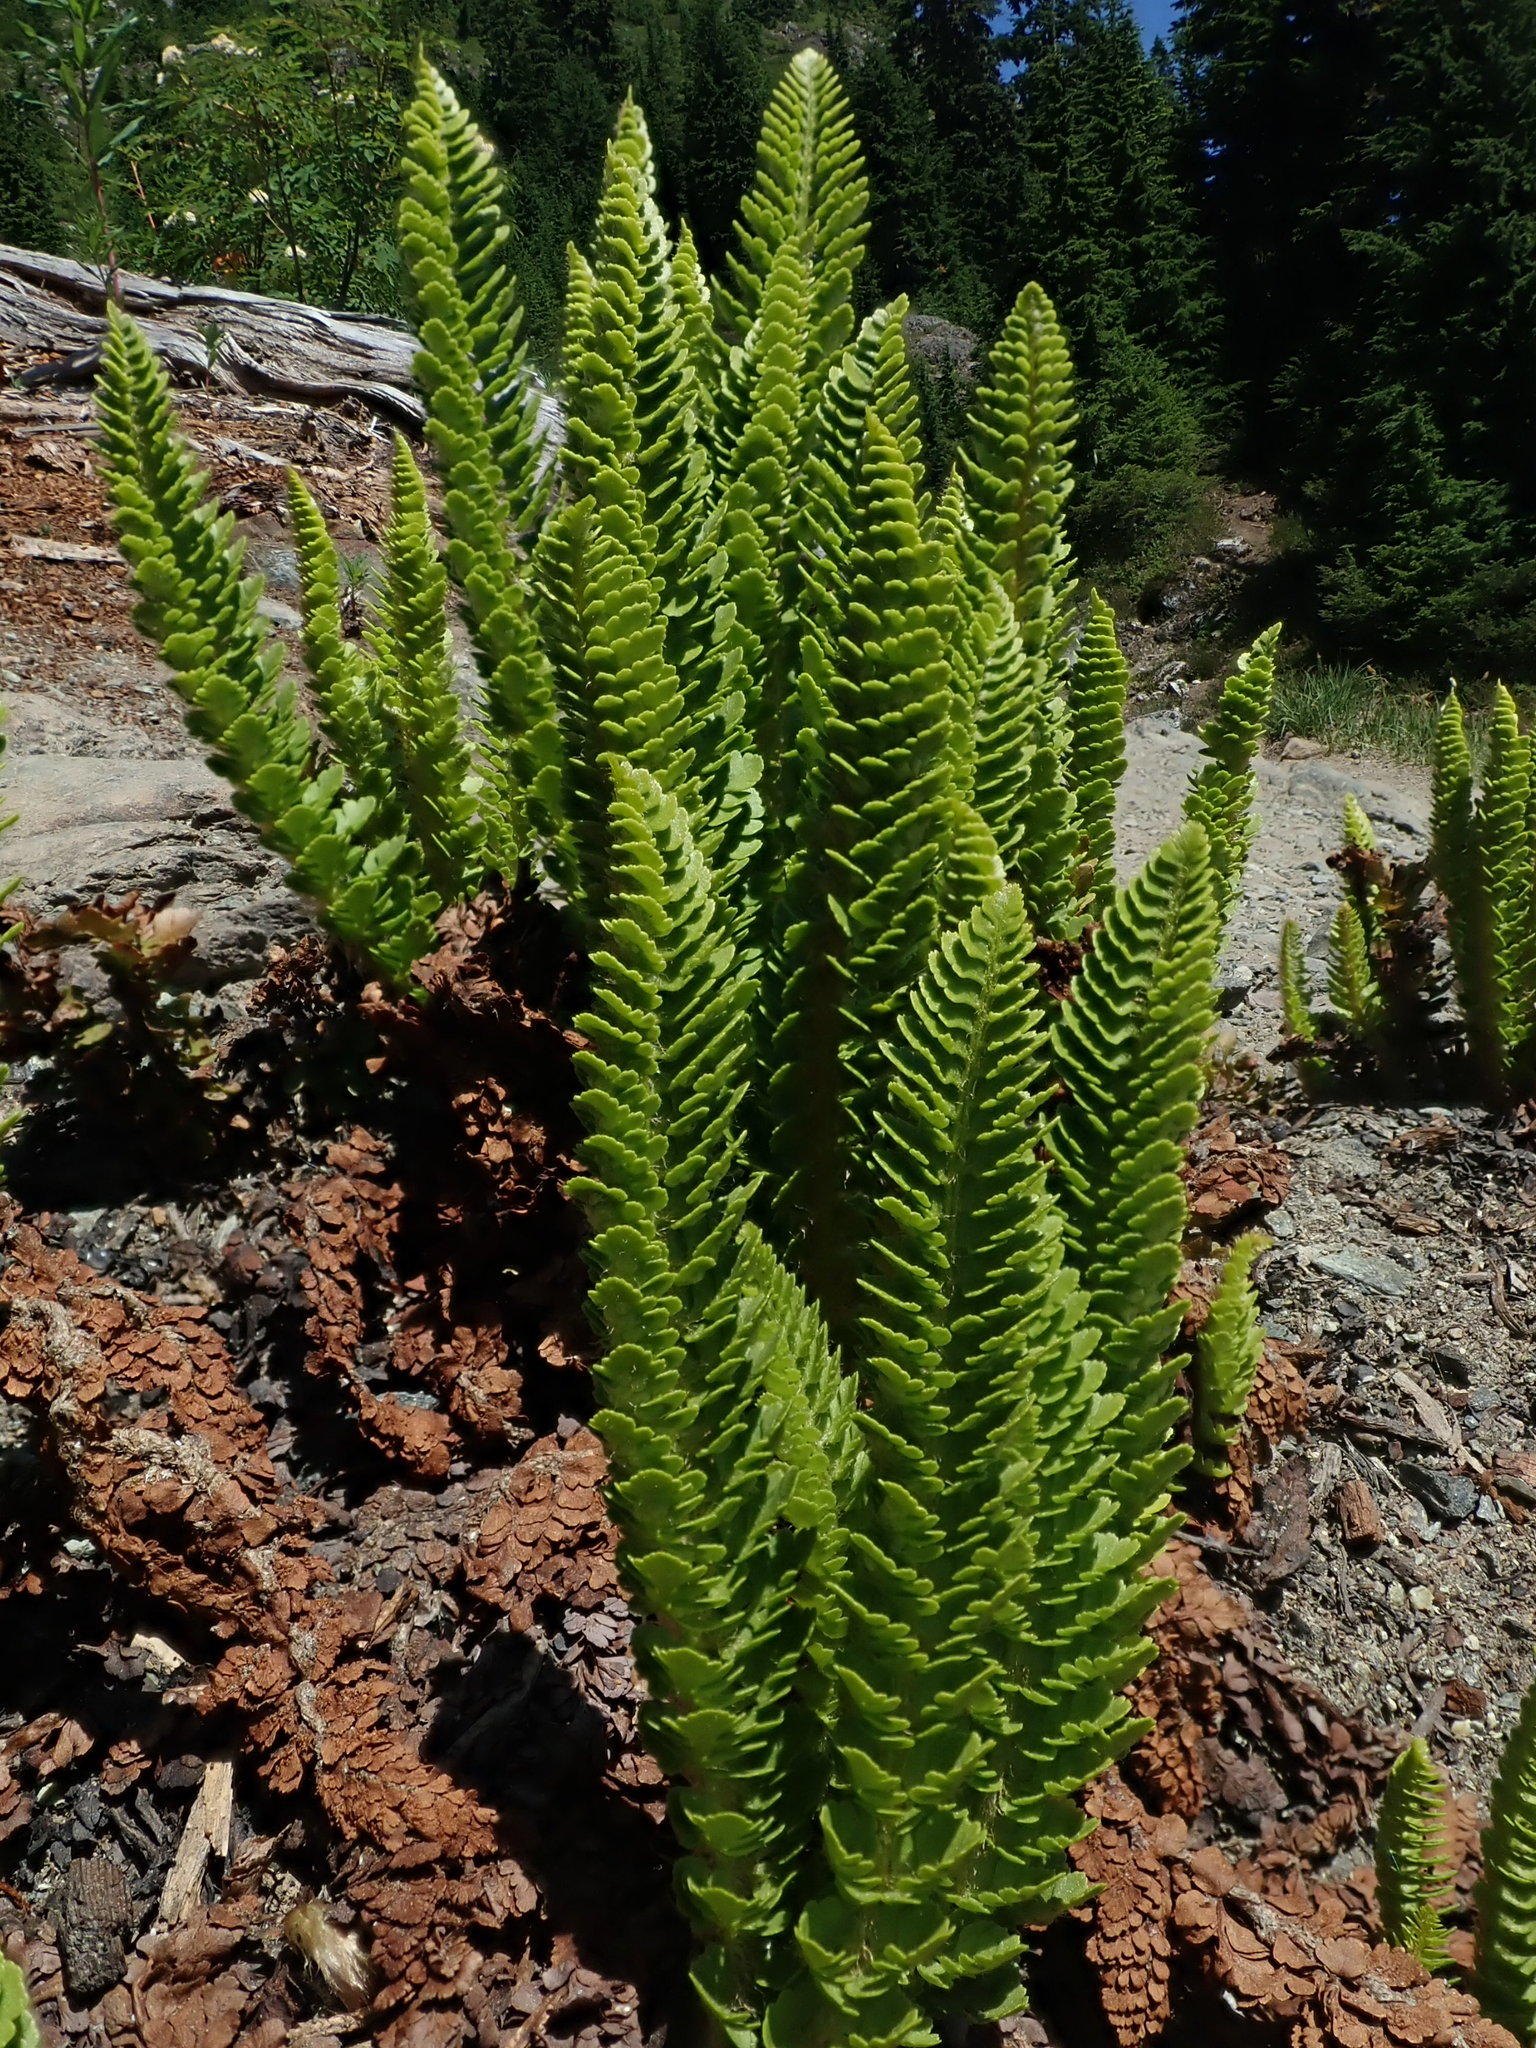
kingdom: Plantae
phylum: Tracheophyta
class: Polypodiopsida
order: Polypodiales
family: Dryopteridaceae
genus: Polystichum
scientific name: Polystichum lemmonii
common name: Lemmon's holly fern
